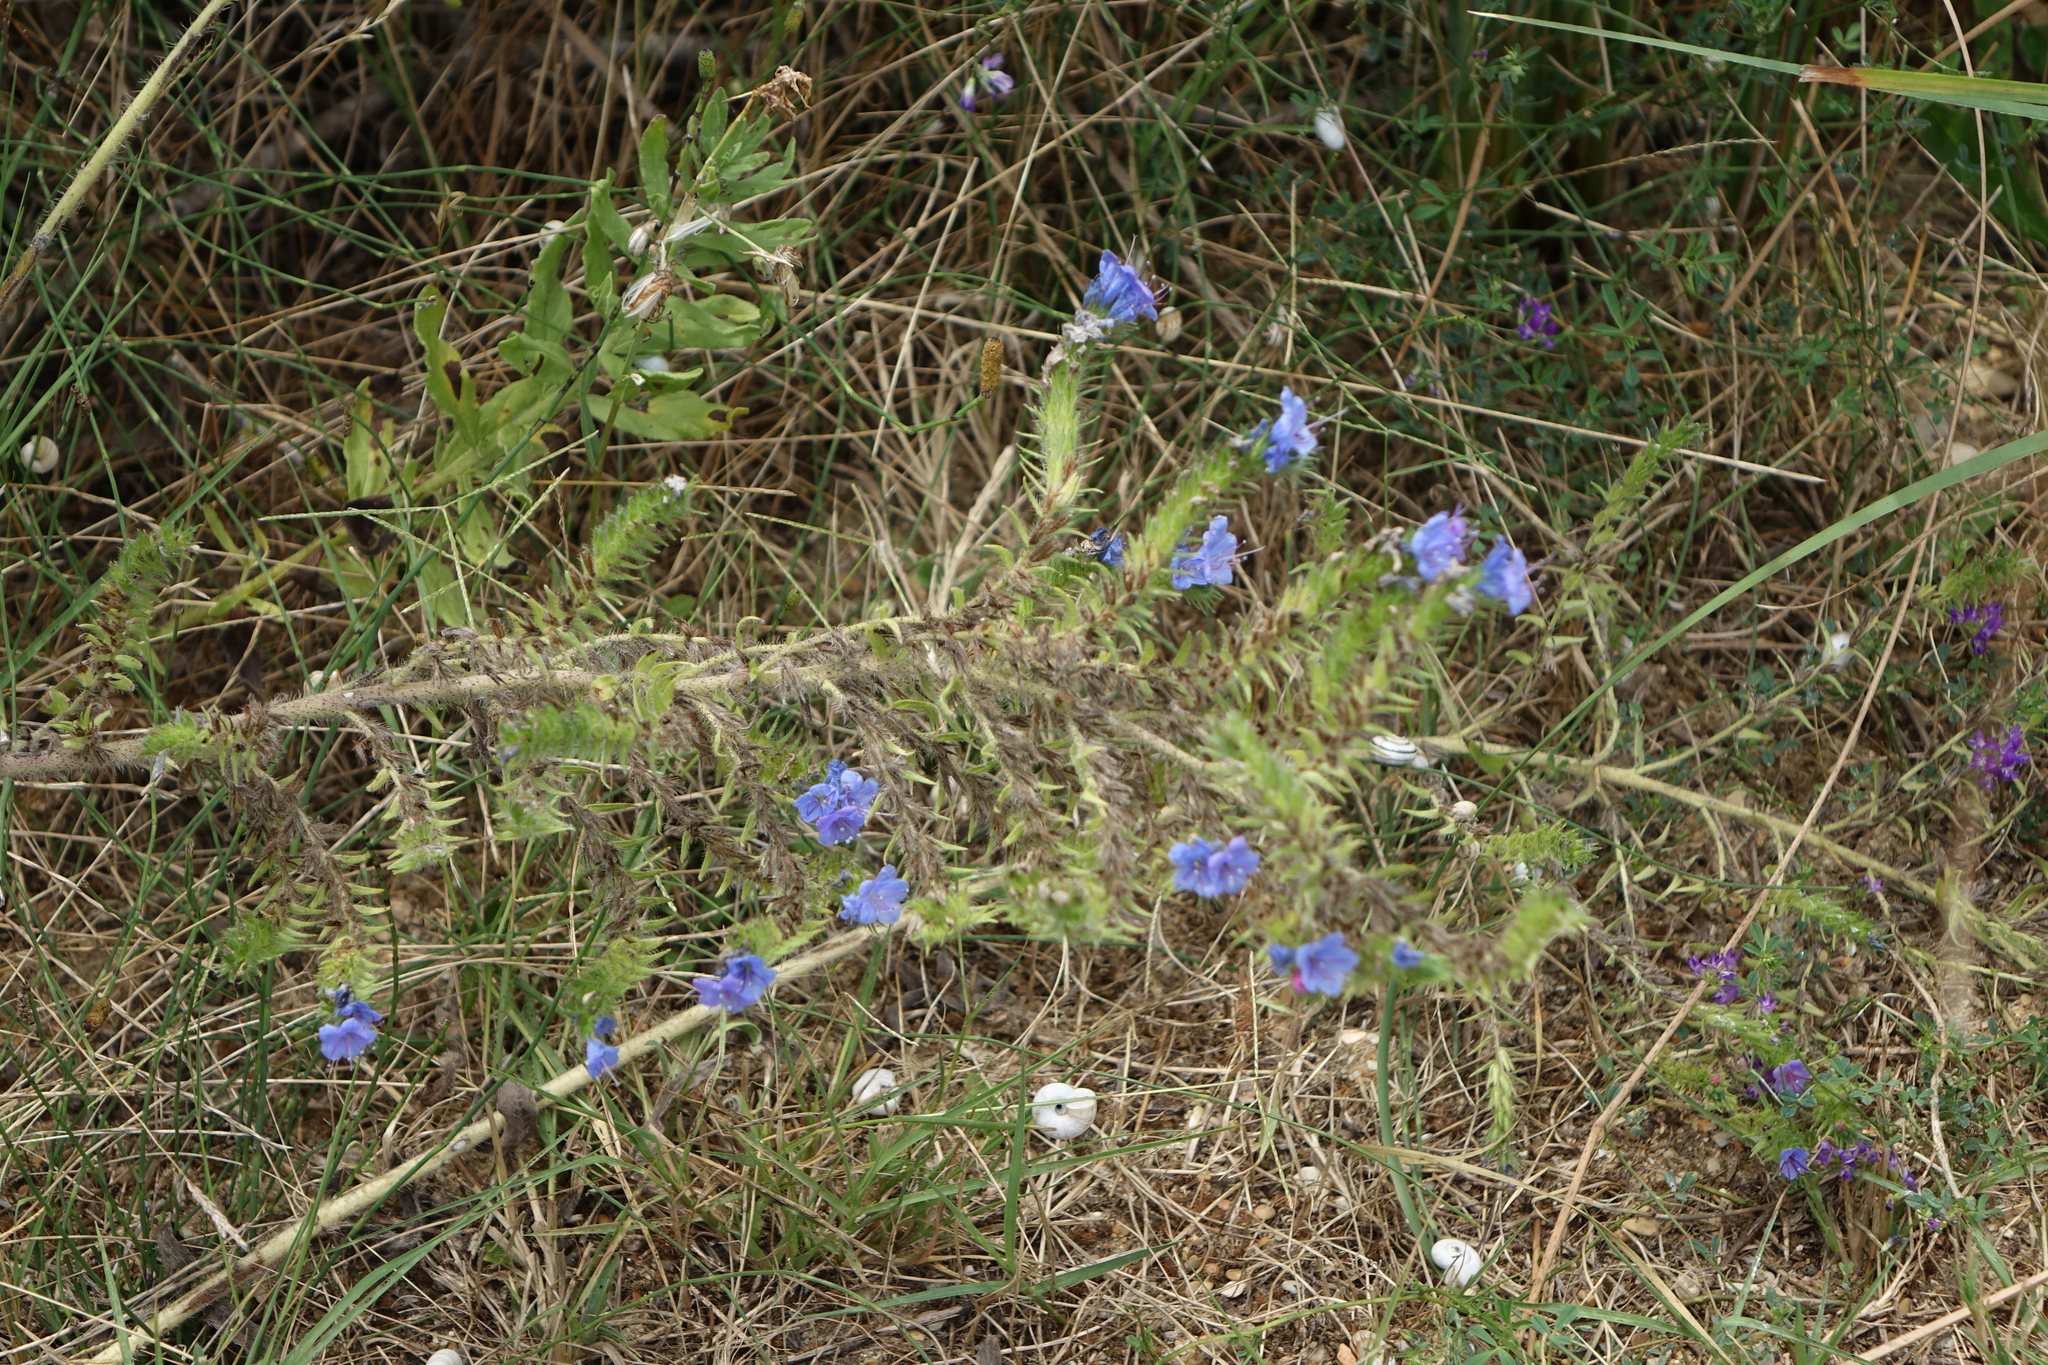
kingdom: Plantae
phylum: Tracheophyta
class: Magnoliopsida
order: Boraginales
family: Boraginaceae
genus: Echium
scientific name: Echium vulgare
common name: Common viper's bugloss
